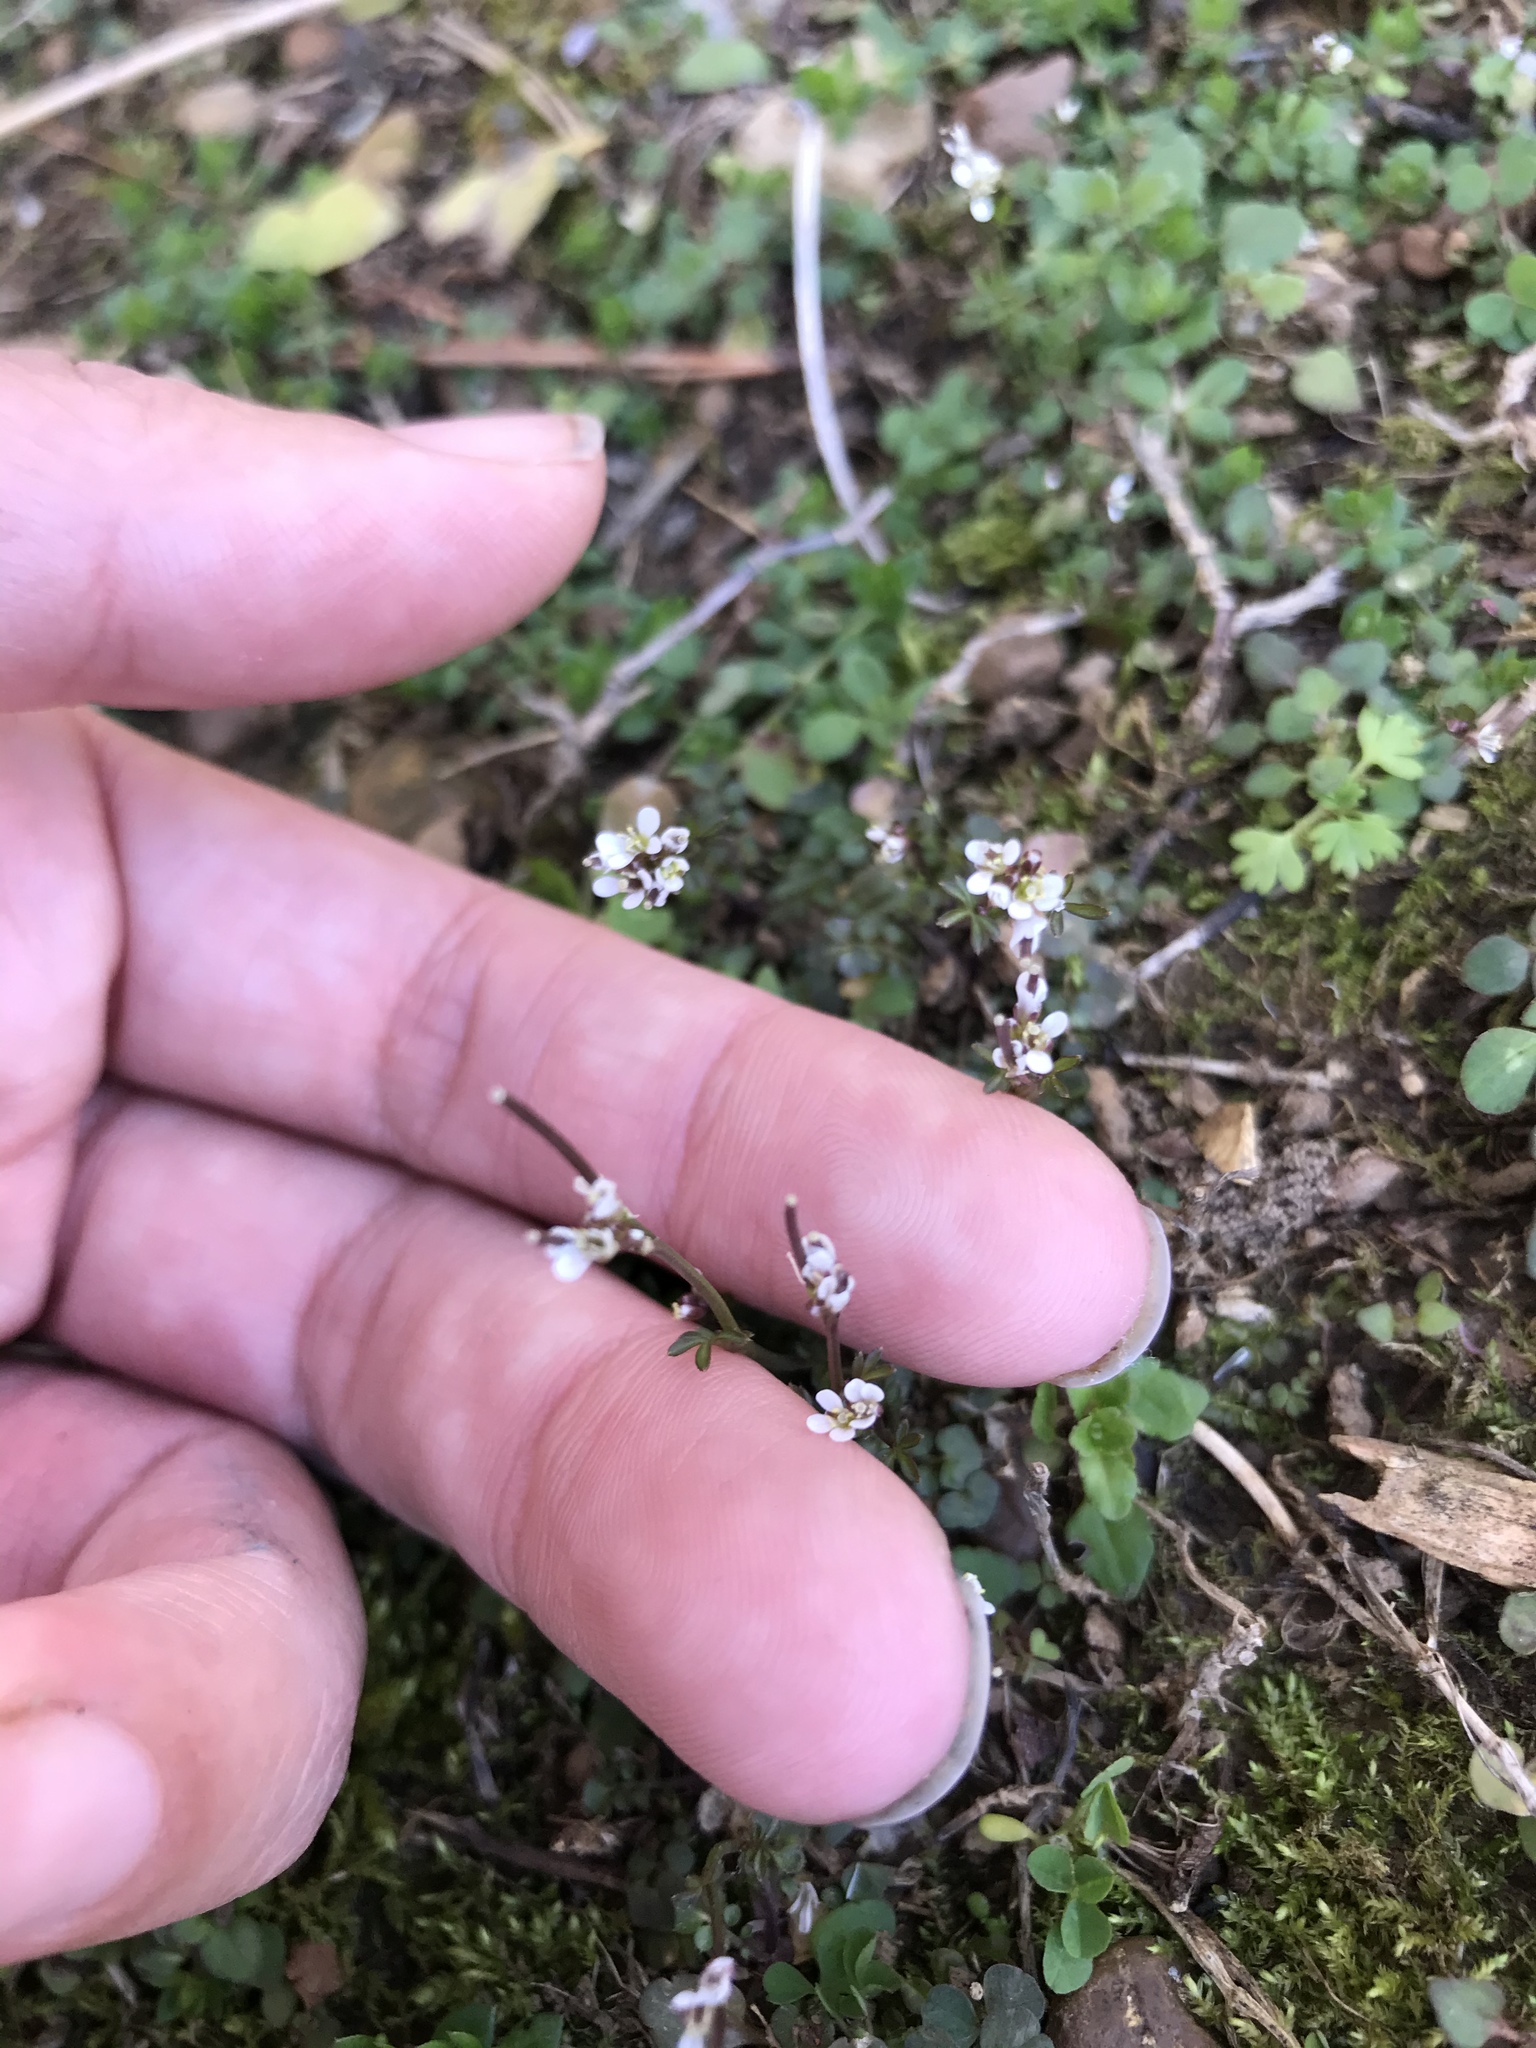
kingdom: Plantae
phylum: Tracheophyta
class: Magnoliopsida
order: Brassicales
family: Brassicaceae
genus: Cardamine
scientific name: Cardamine hirsuta
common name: Hairy bittercress
